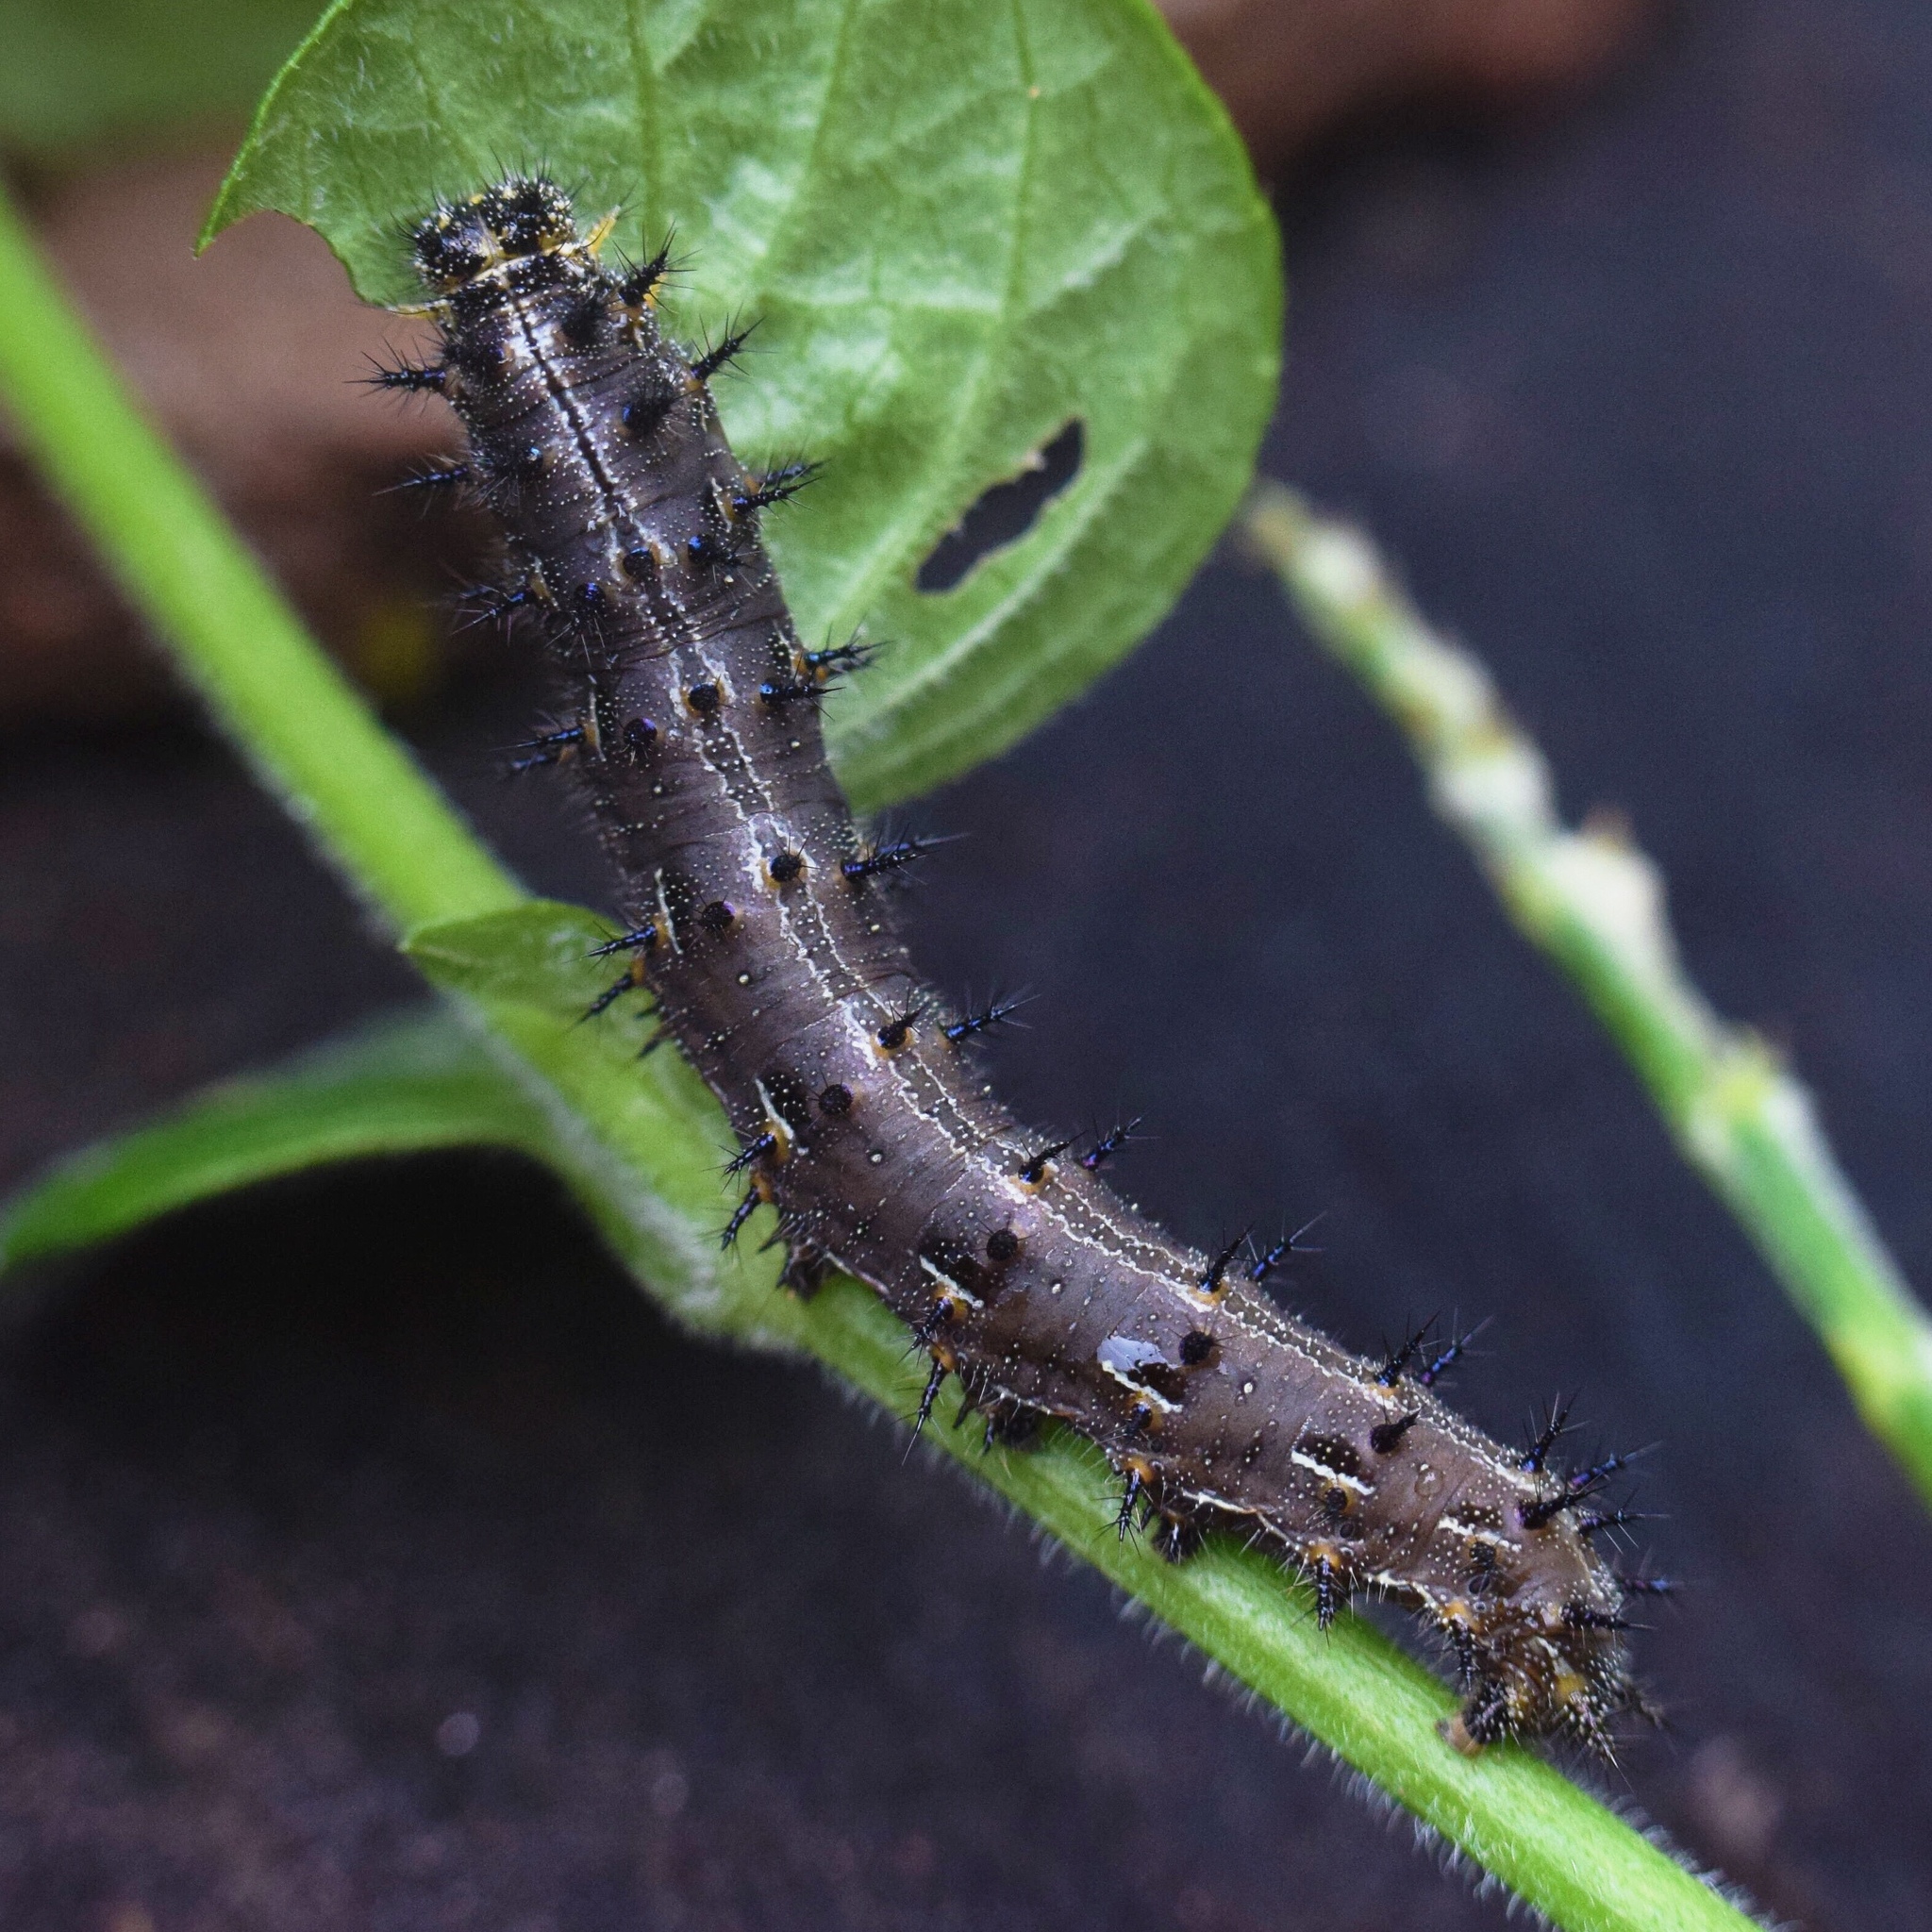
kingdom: Animalia
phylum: Arthropoda
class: Insecta
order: Lepidoptera
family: Nymphalidae
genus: Junonia
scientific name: Junonia oenone
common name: Dark blue pansy
